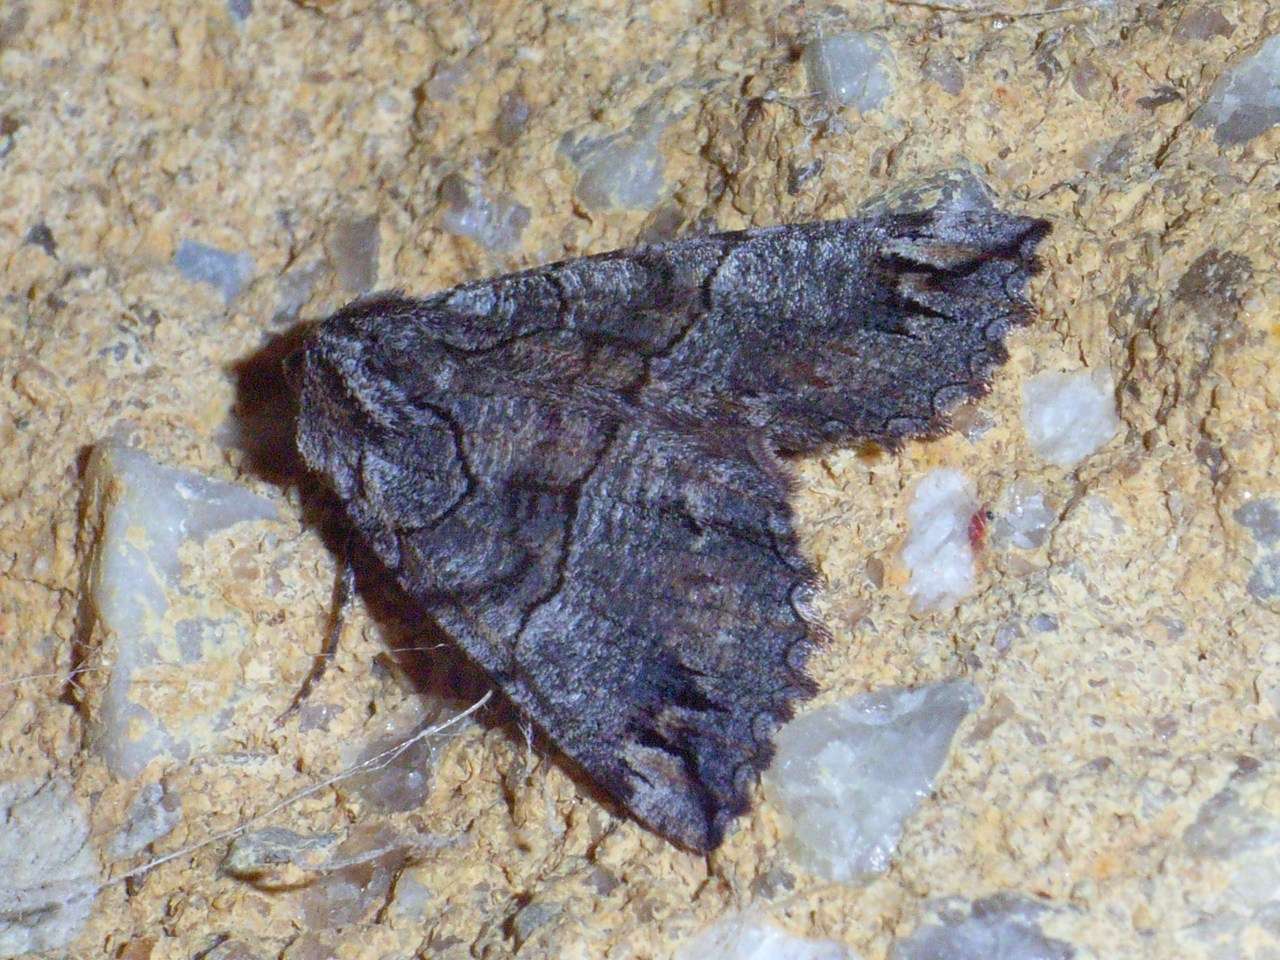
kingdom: Animalia
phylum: Arthropoda
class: Insecta
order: Lepidoptera
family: Geometridae
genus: Nisista
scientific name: Nisista notodontaria
